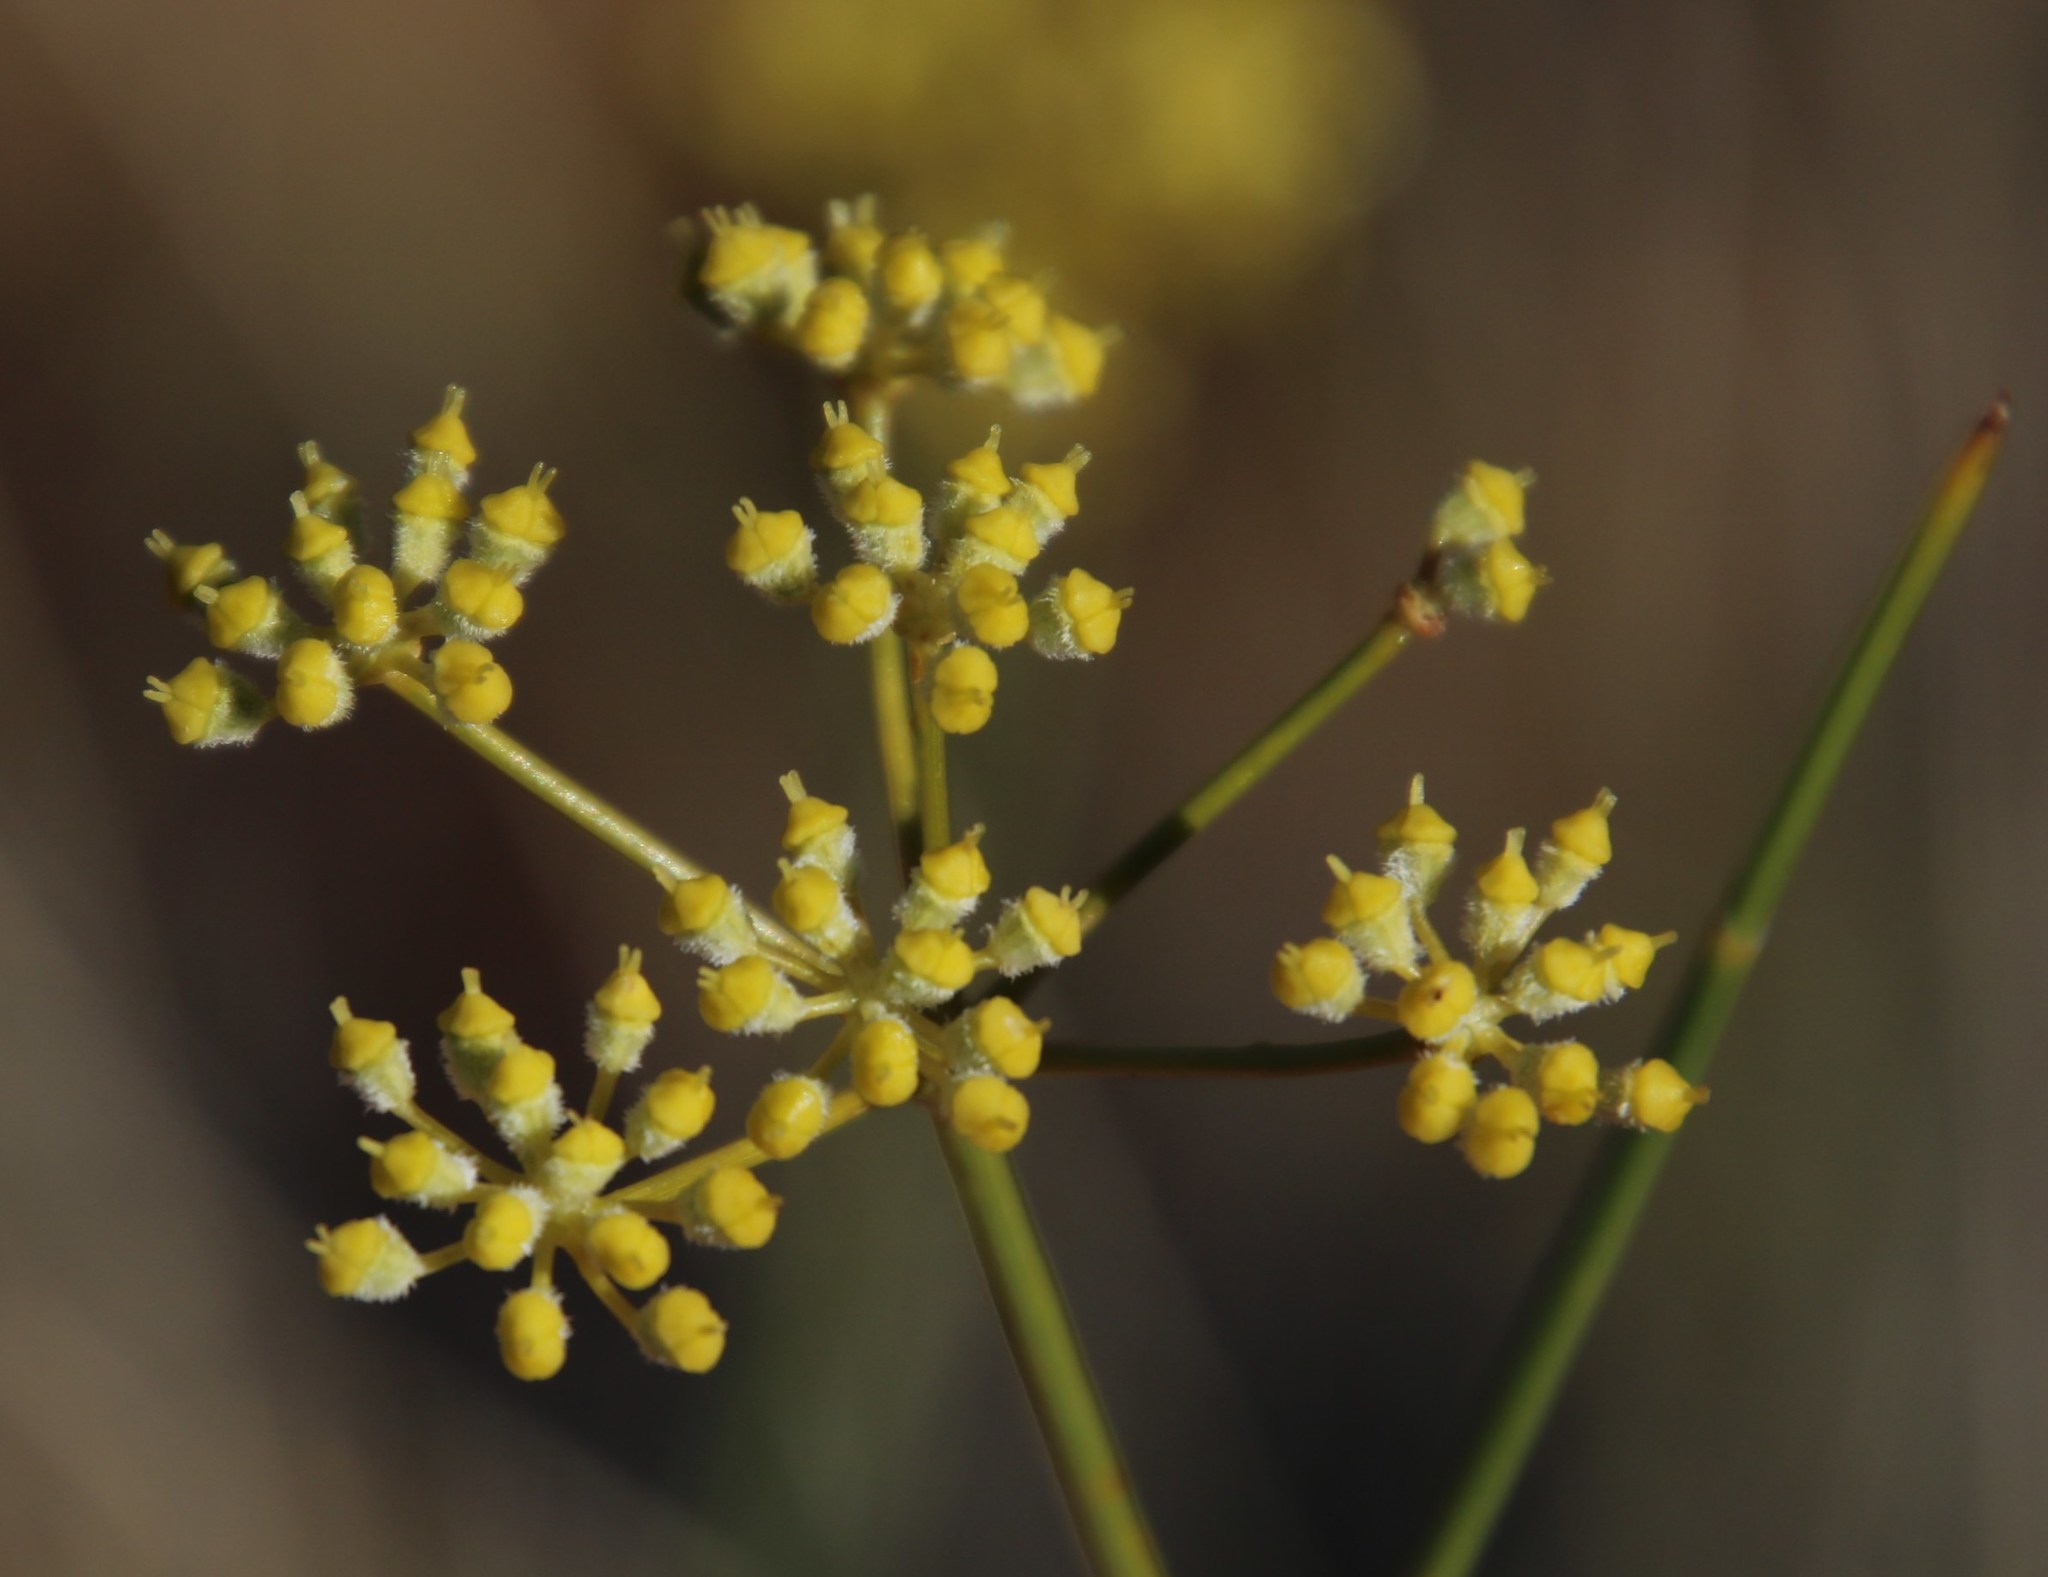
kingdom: Plantae
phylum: Tracheophyta
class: Magnoliopsida
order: Apiales
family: Apiaceae
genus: Deverra
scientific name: Deverra aphylla
